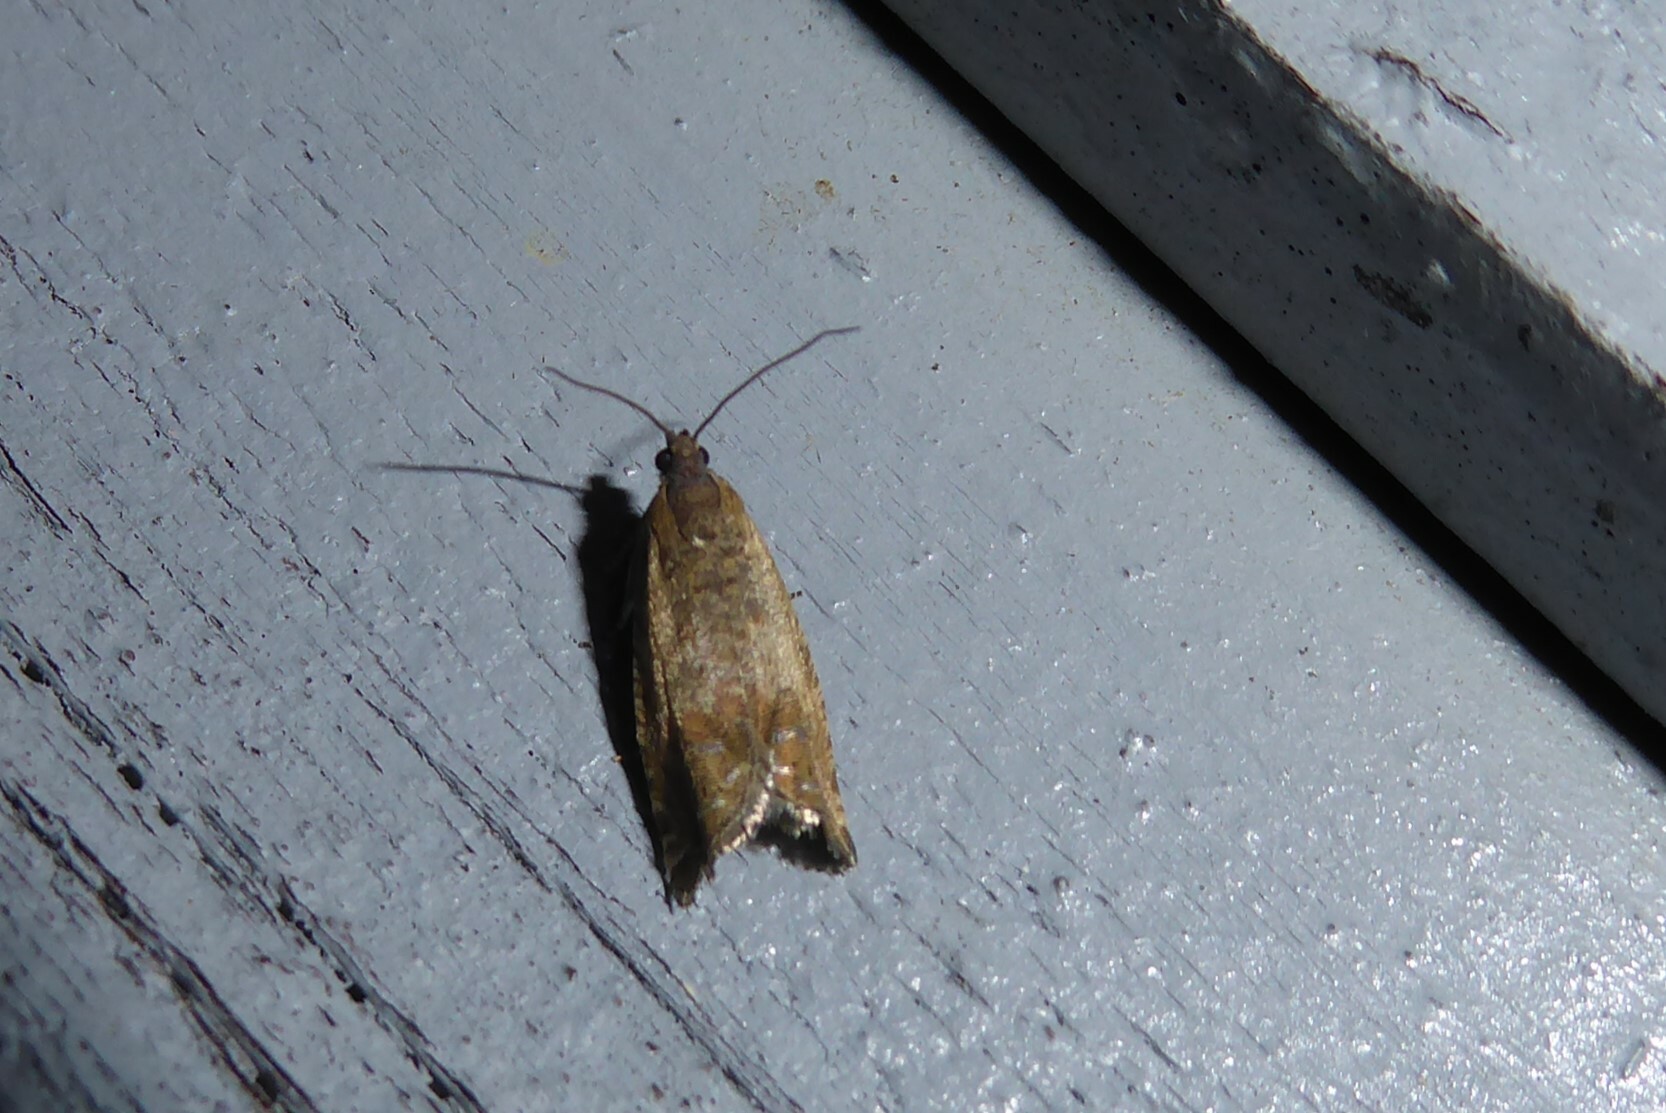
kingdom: Animalia
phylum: Arthropoda
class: Insecta
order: Lepidoptera
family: Tortricidae
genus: Cydia
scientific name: Cydia succedana
